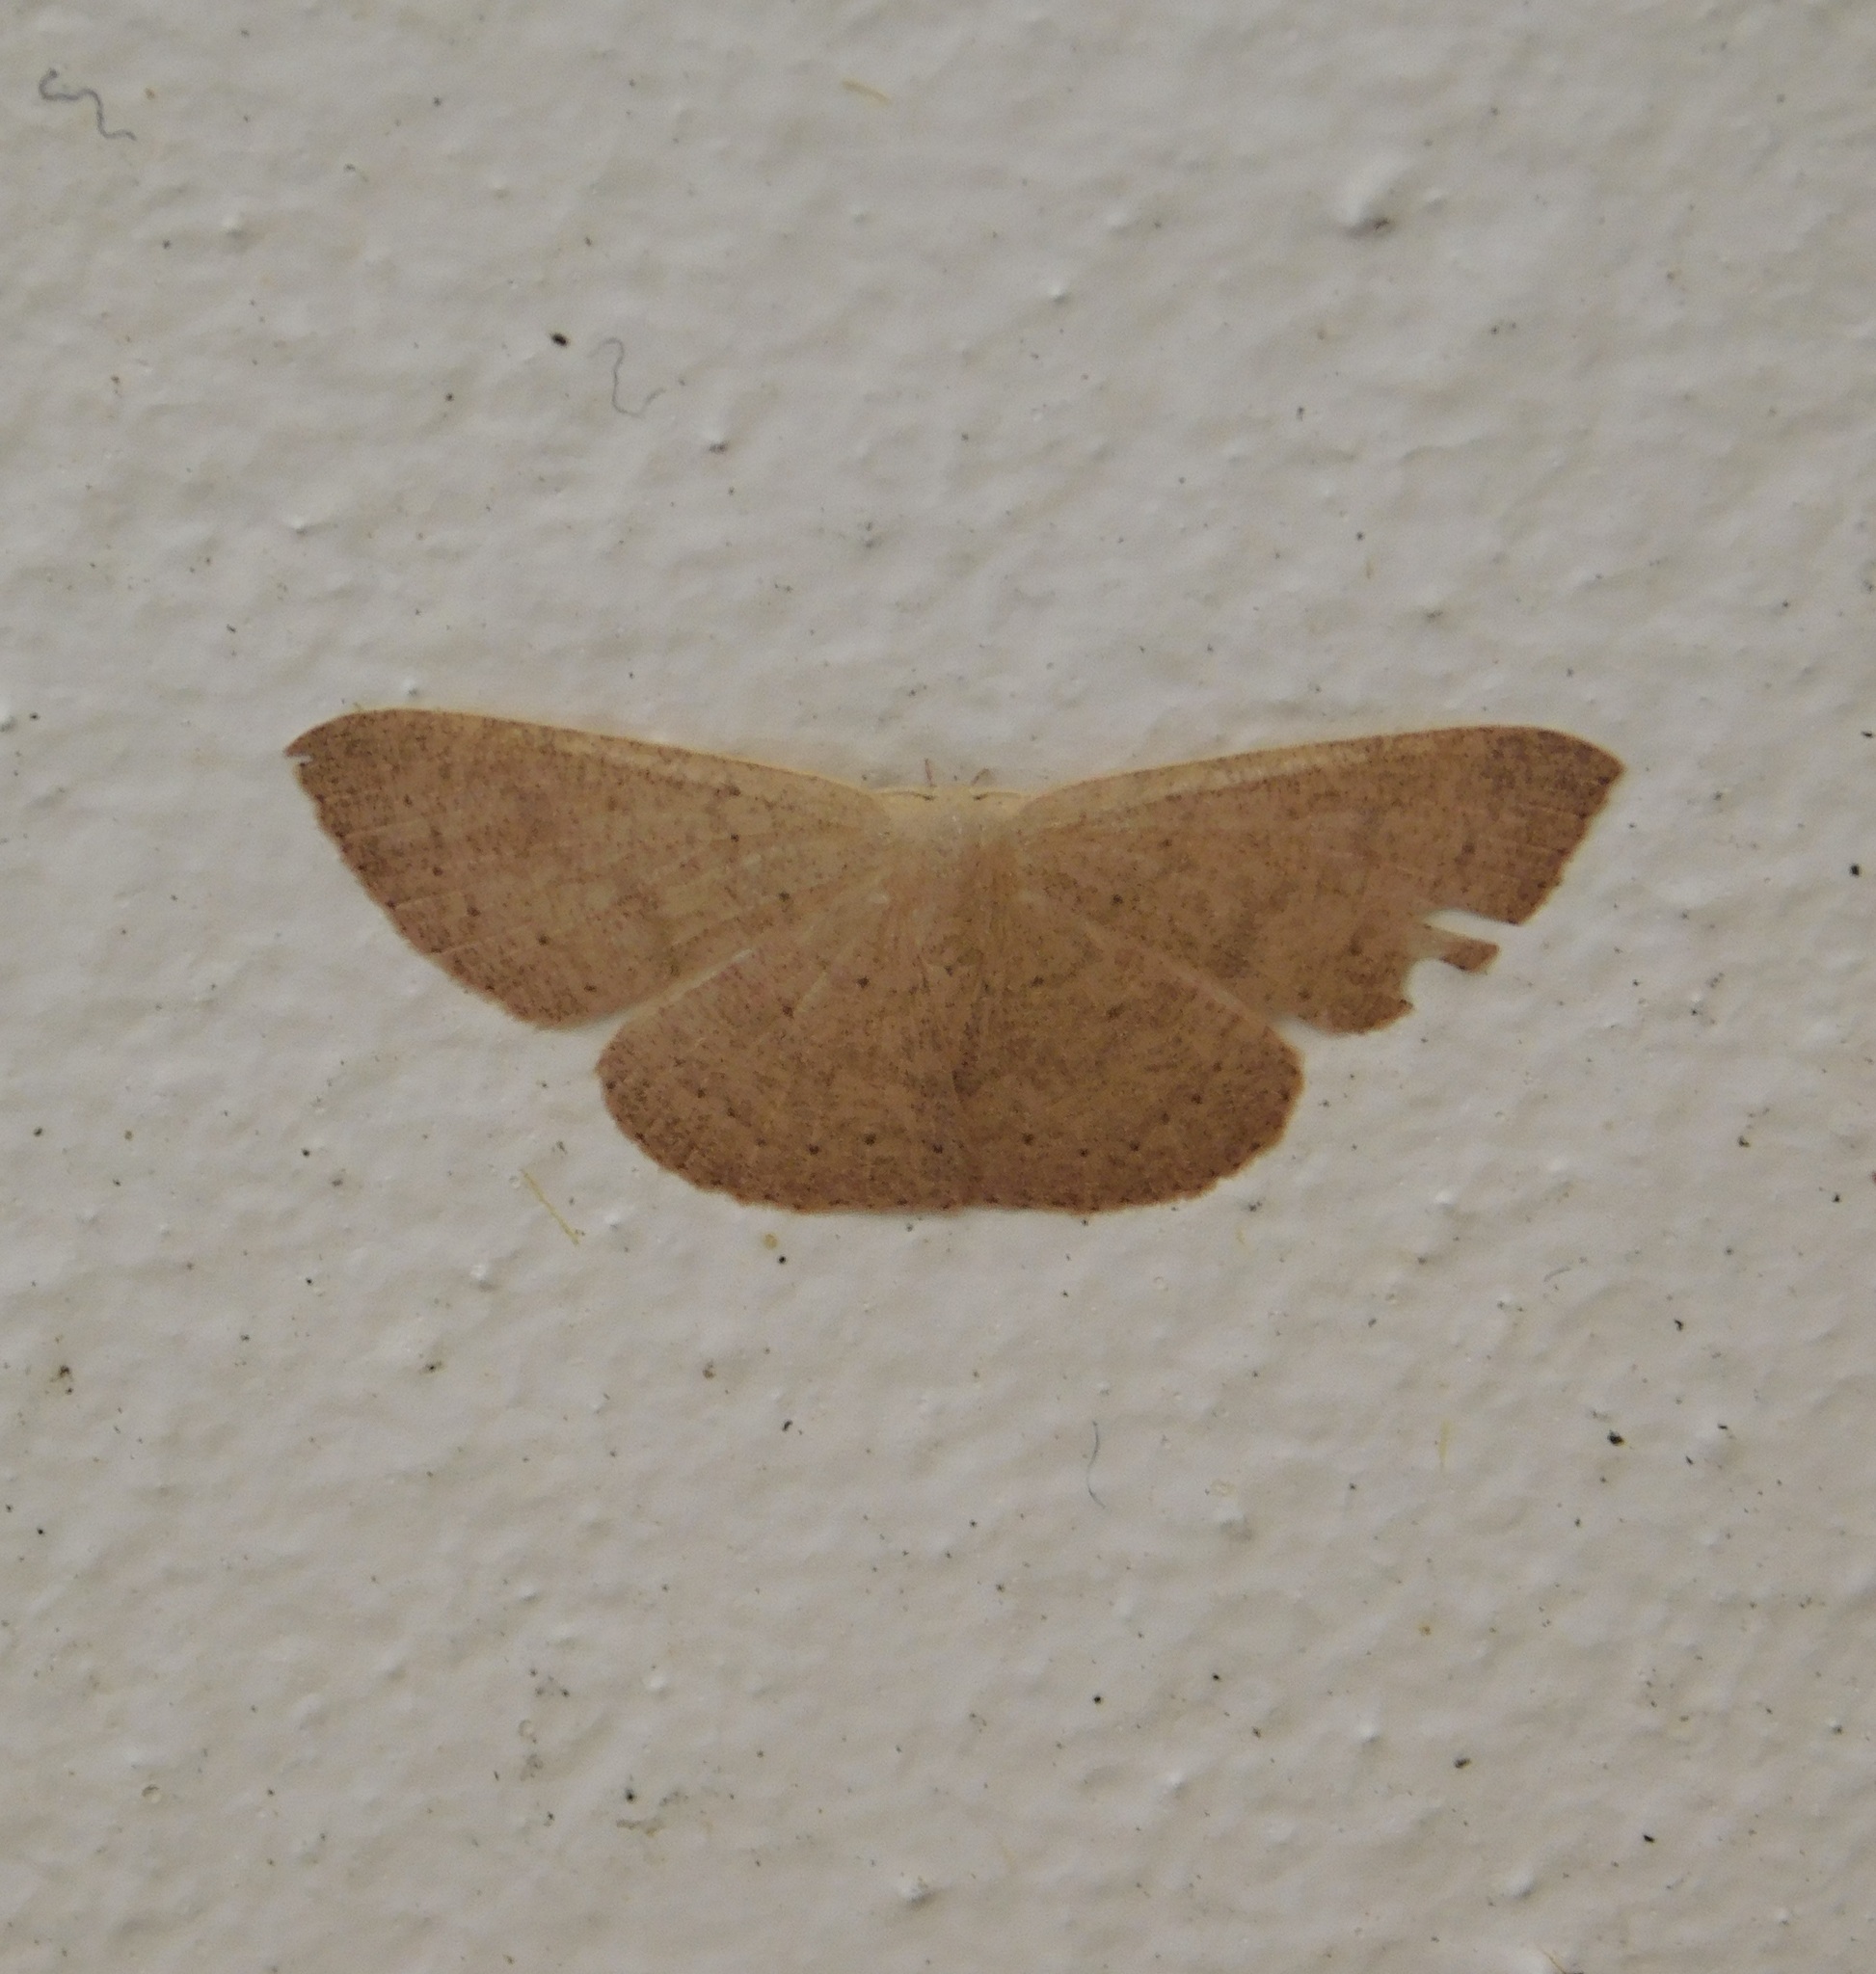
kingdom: Animalia
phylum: Arthropoda
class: Insecta
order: Lepidoptera
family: Geometridae
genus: Cyclophora
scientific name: Cyclophora obstataria
